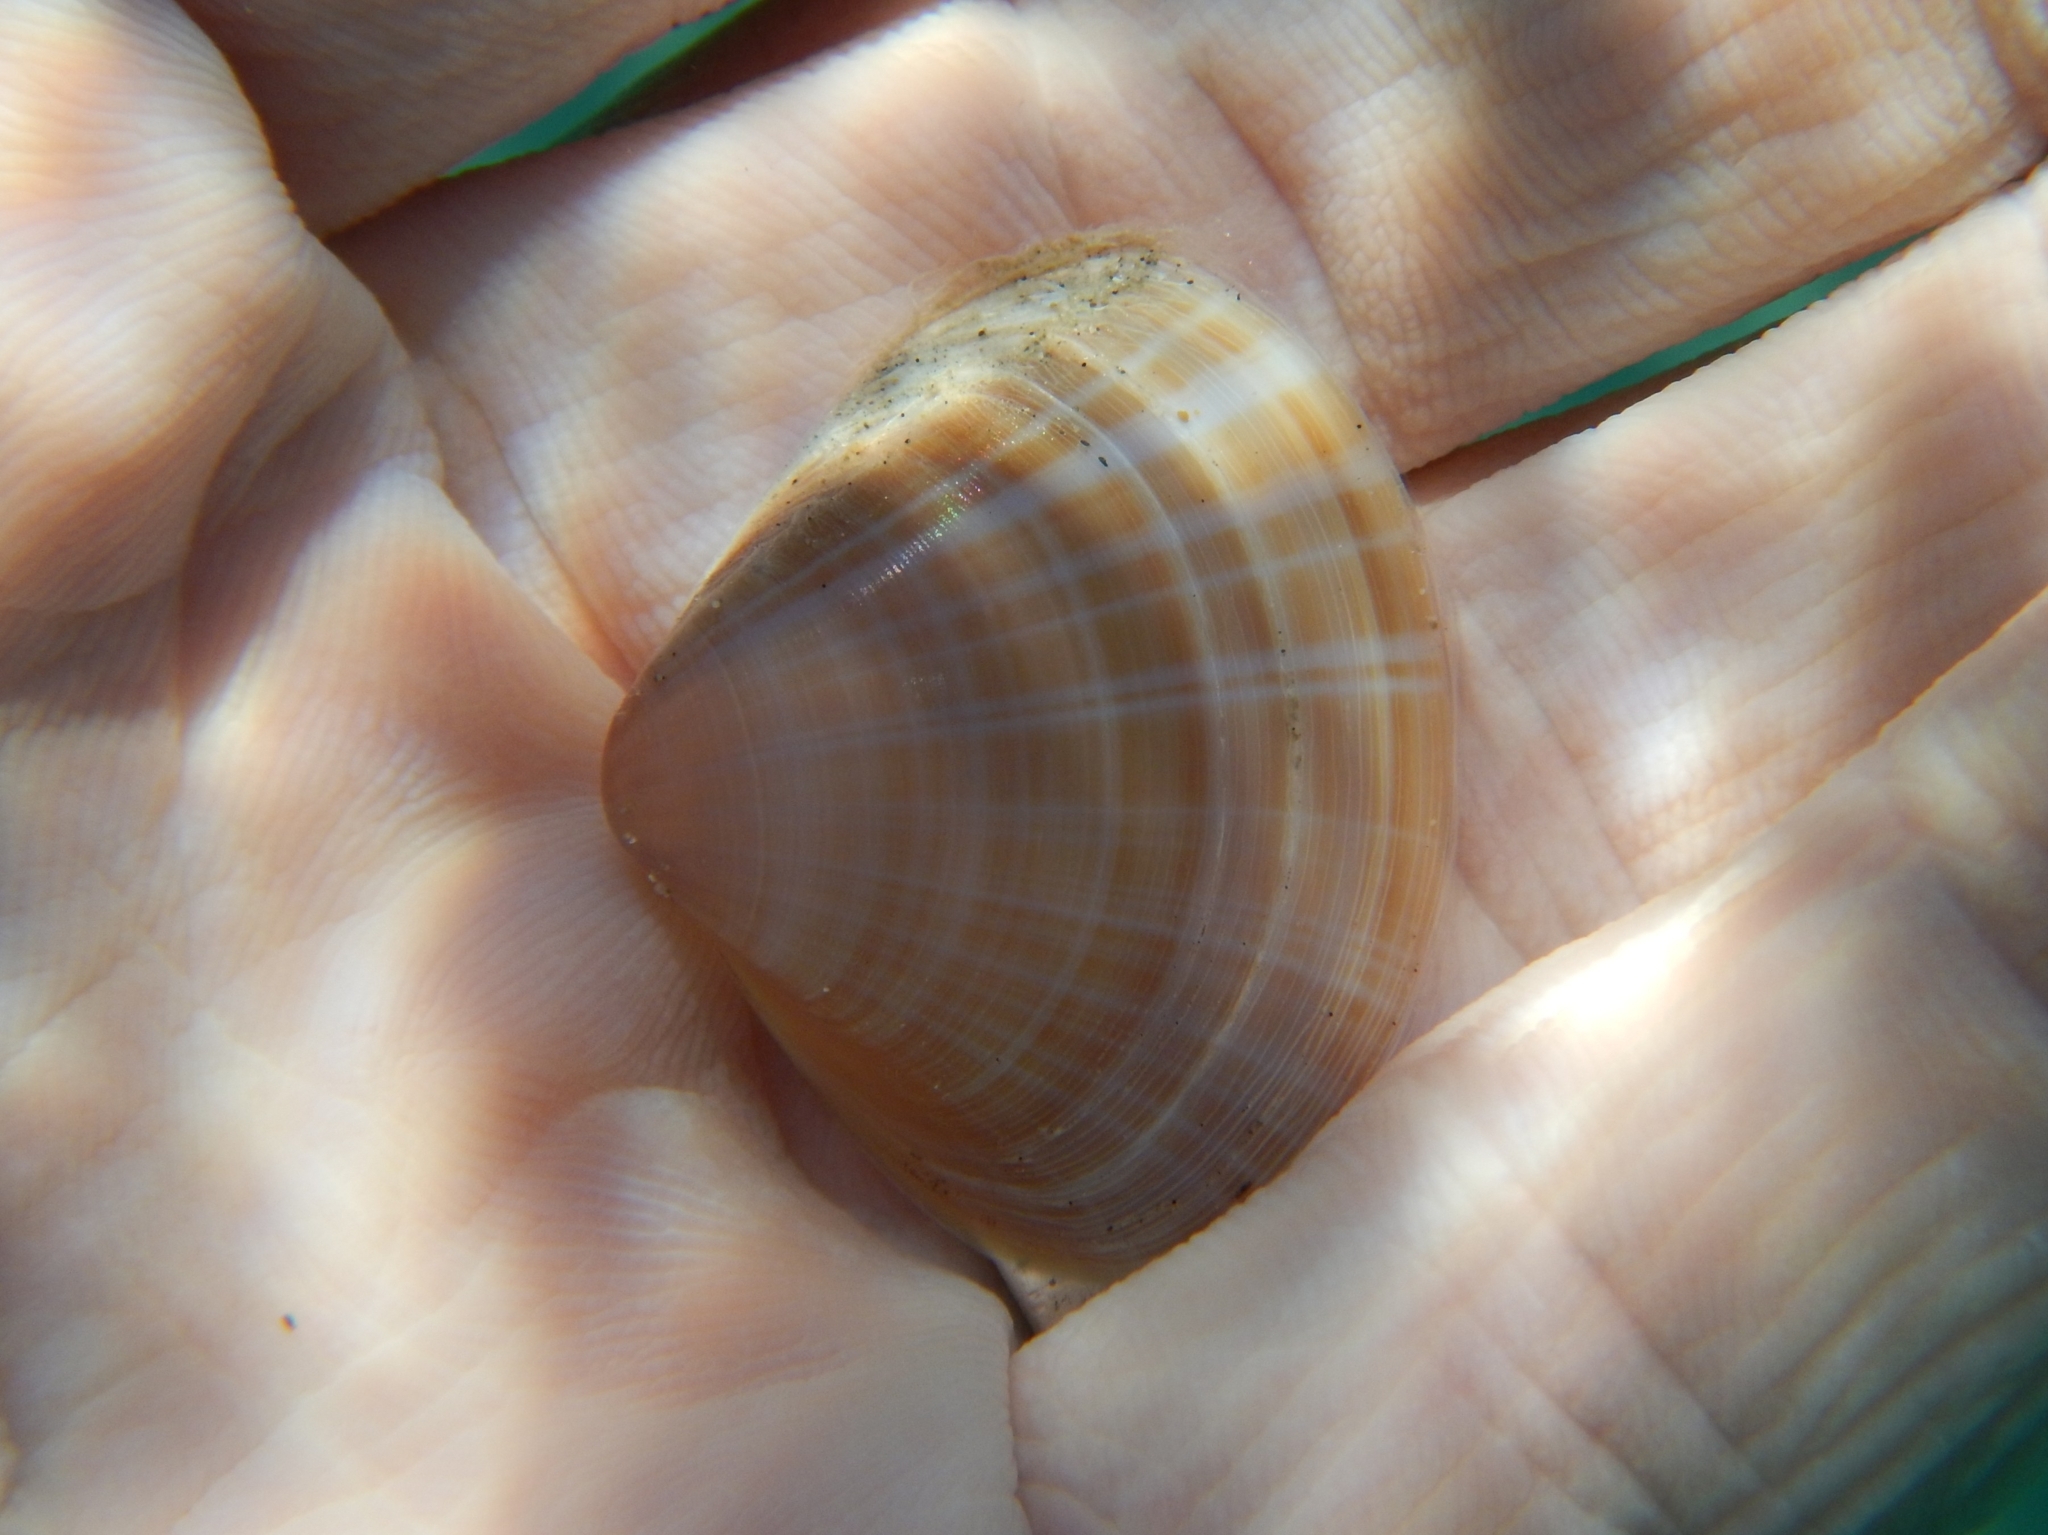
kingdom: Animalia
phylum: Mollusca
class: Bivalvia
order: Venerida
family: Mactridae
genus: Mactra
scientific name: Mactra stultorum
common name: Rayed trough shell
